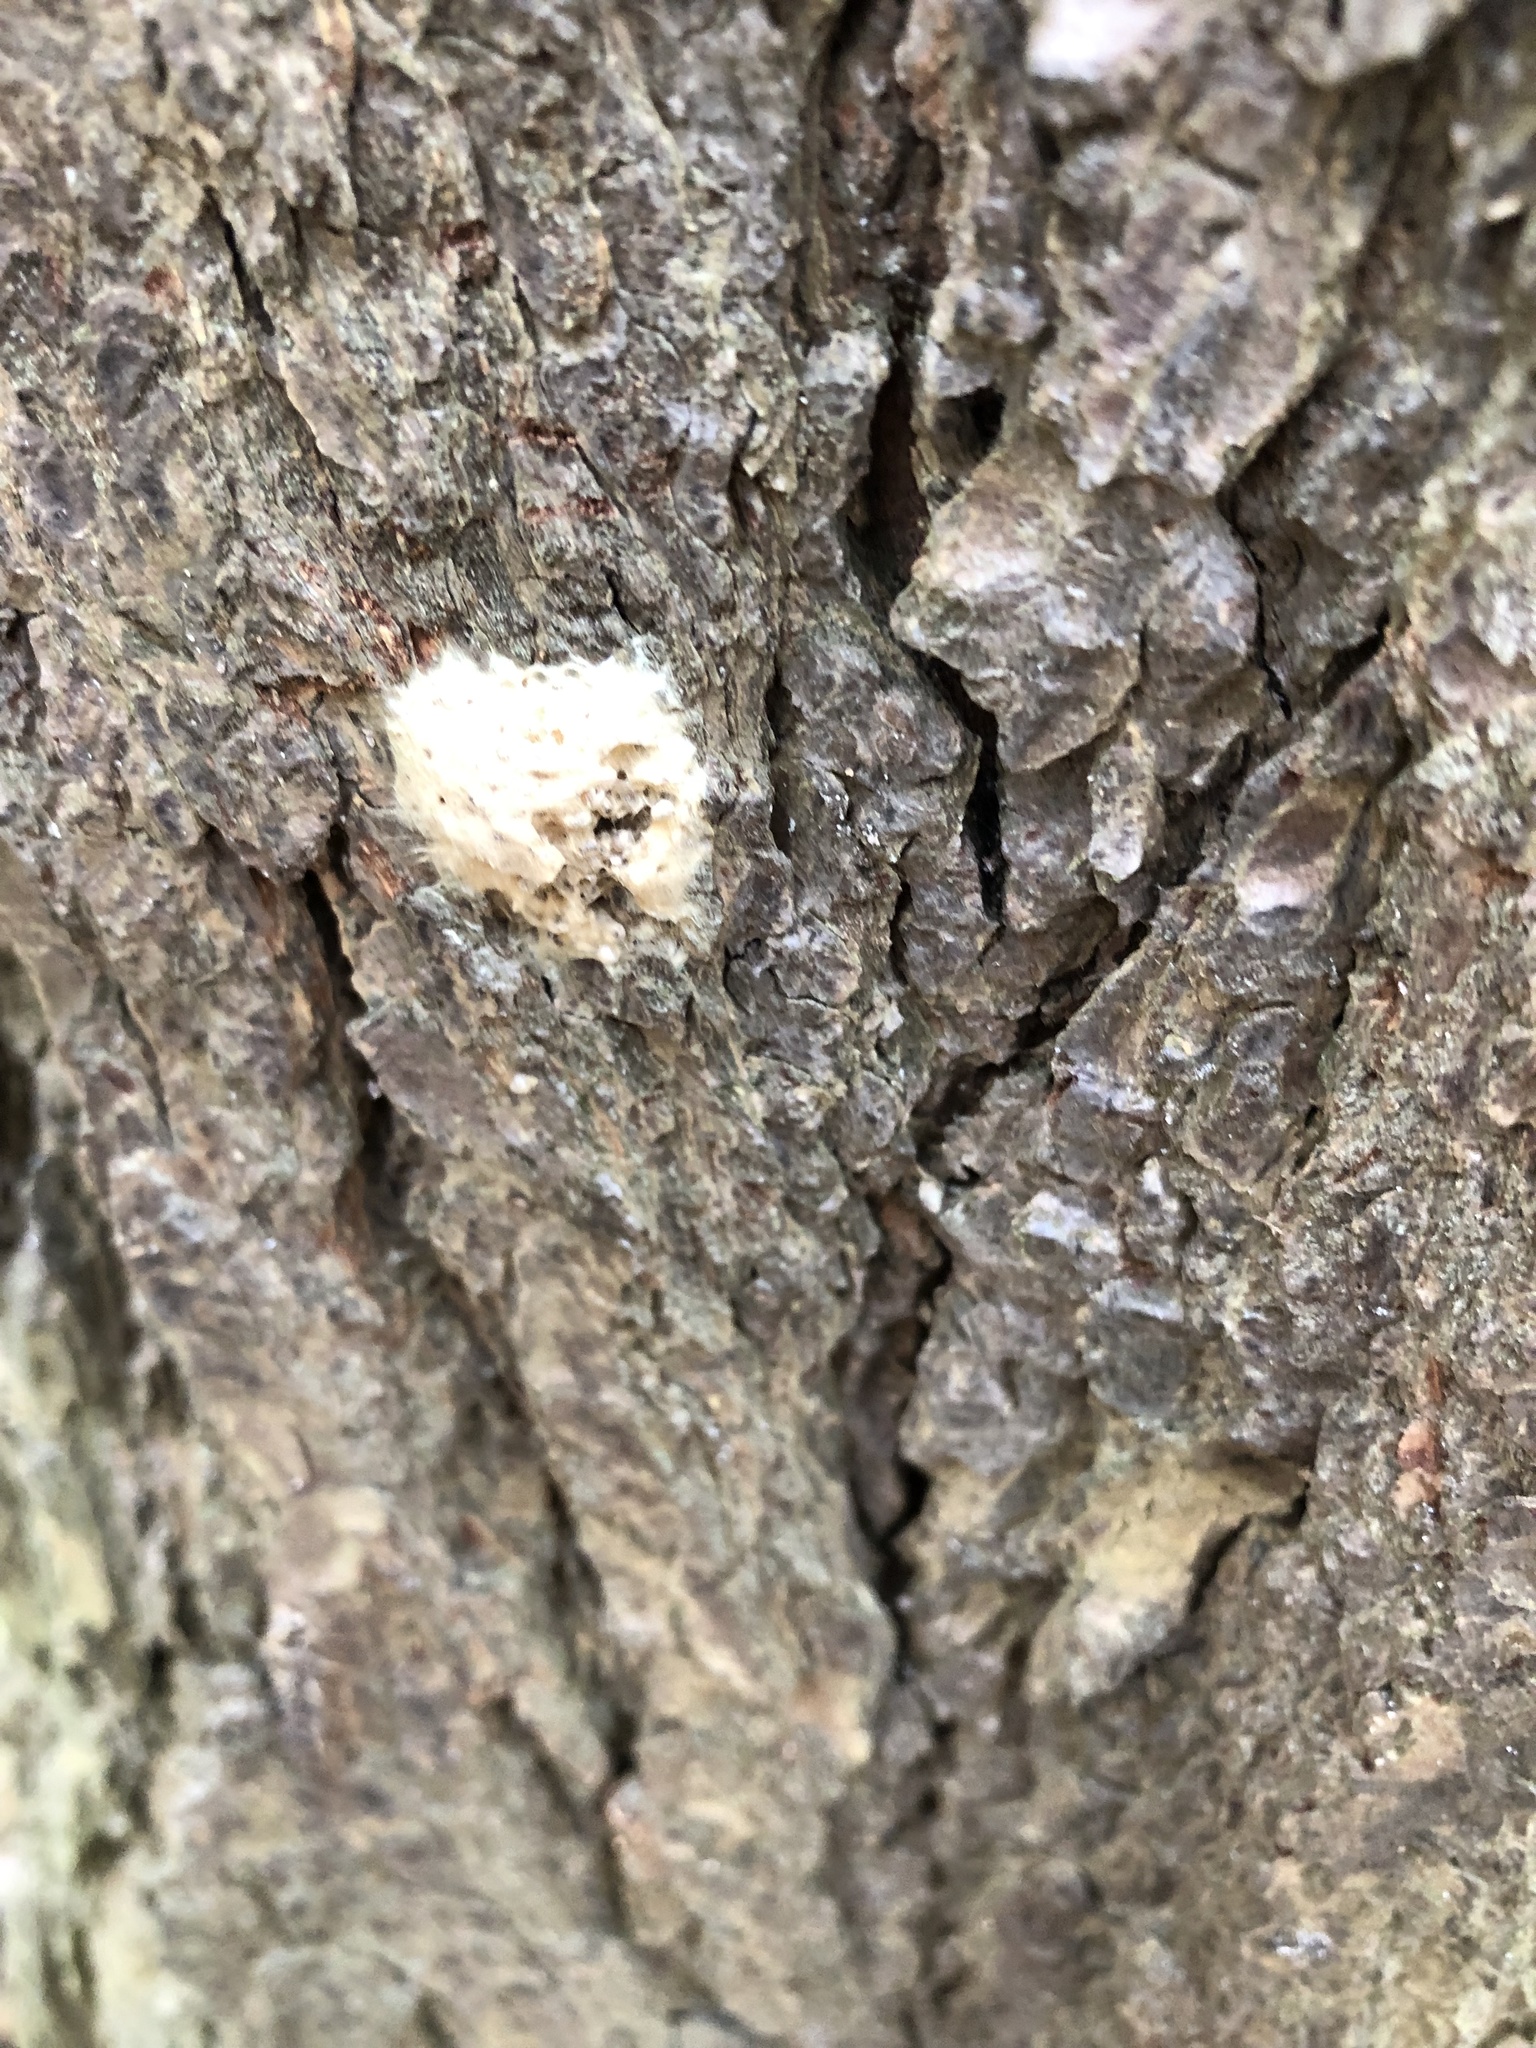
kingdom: Animalia
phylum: Arthropoda
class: Insecta
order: Lepidoptera
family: Erebidae
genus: Lymantria
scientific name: Lymantria dispar
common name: Gypsy moth
